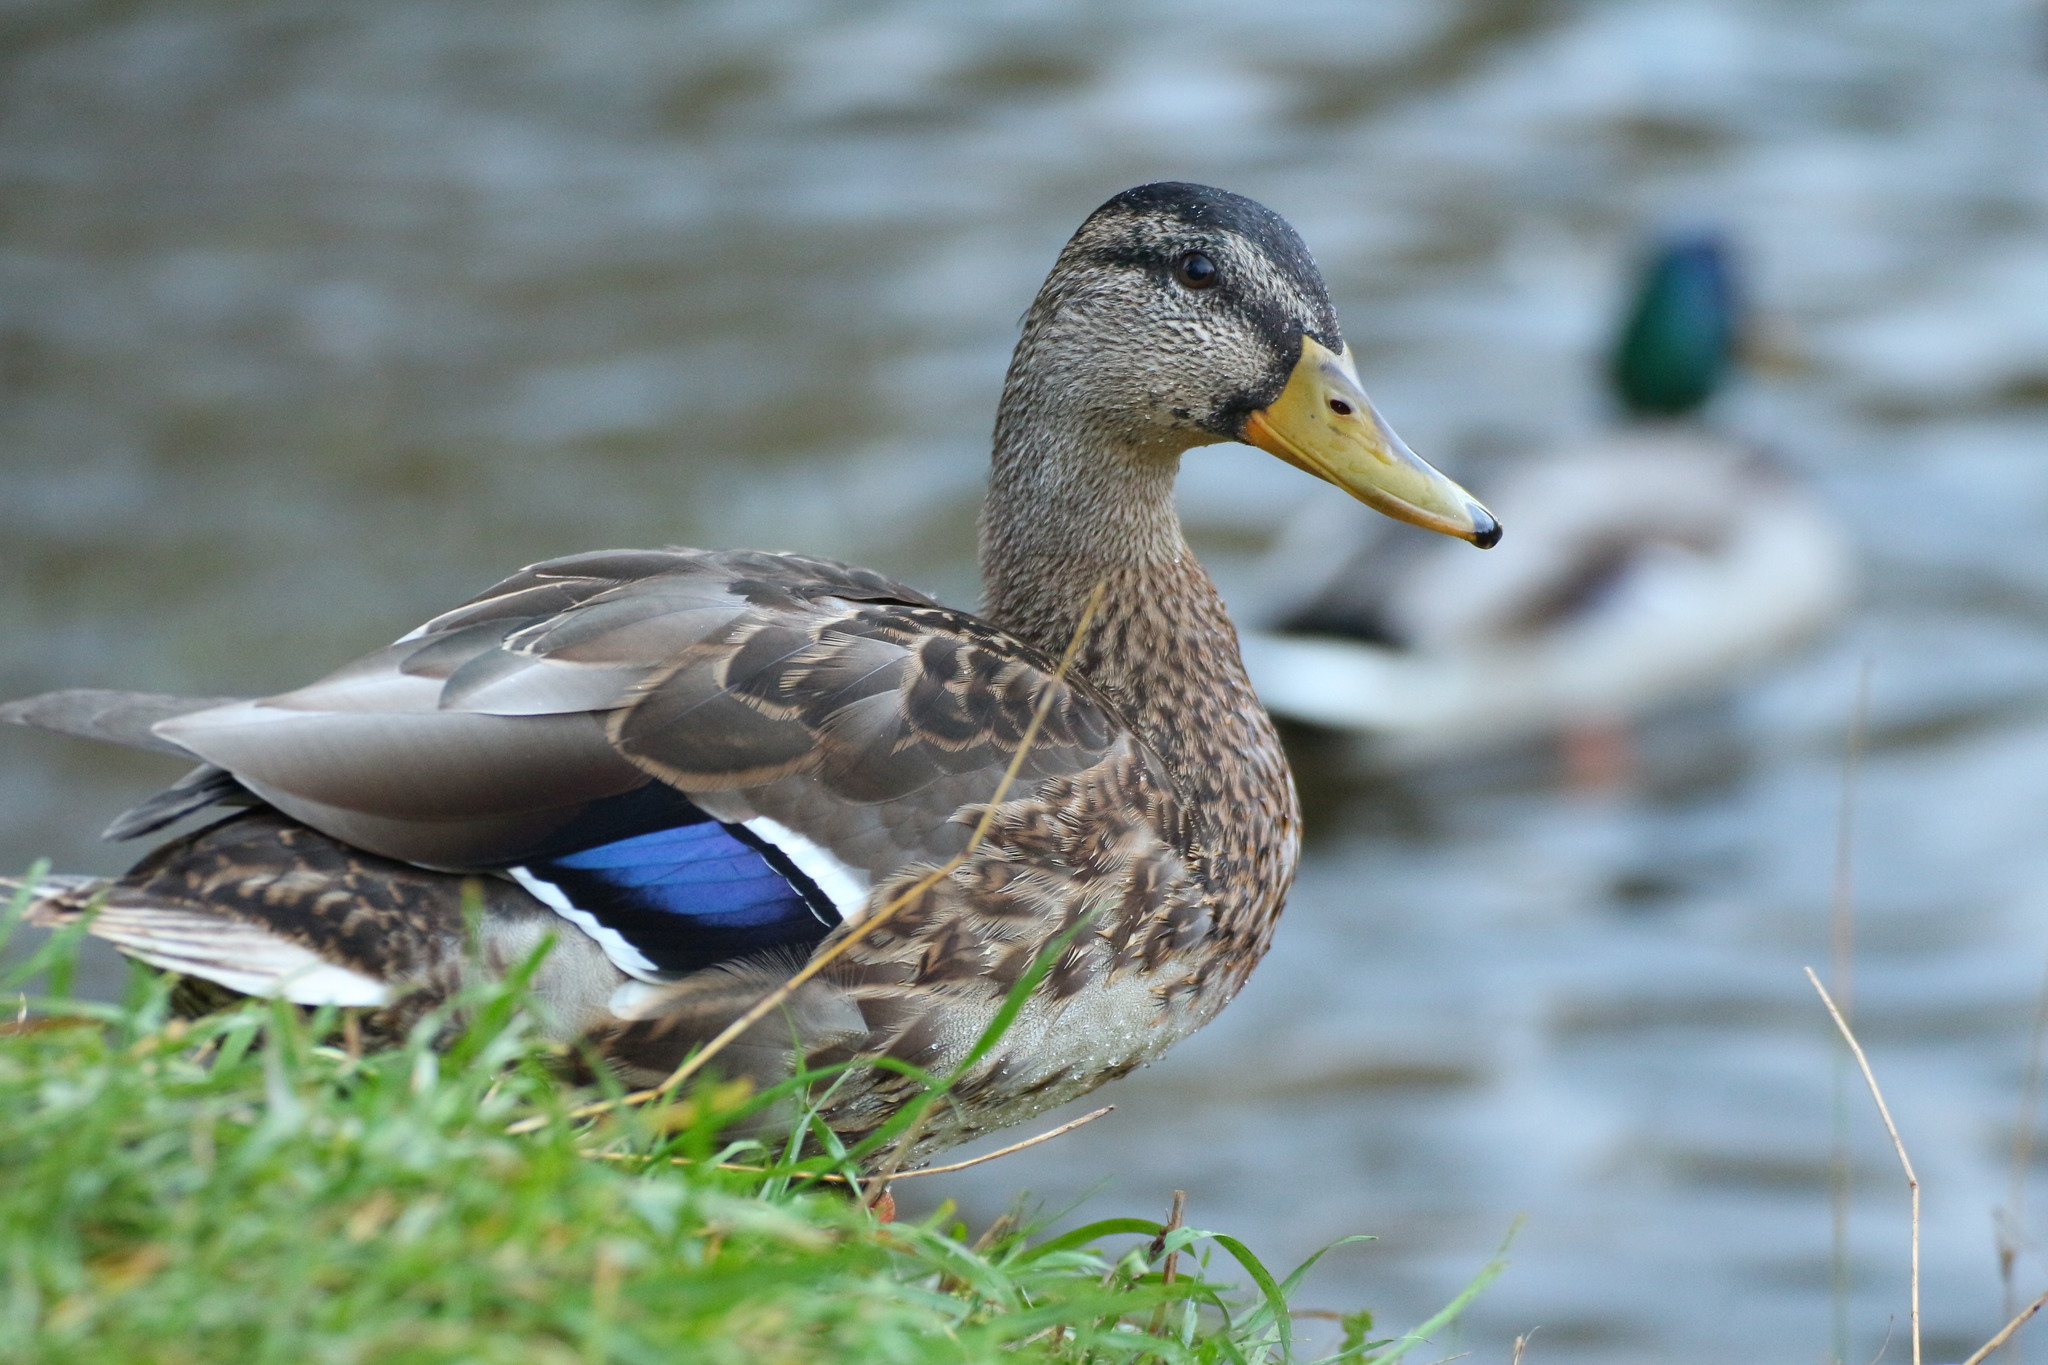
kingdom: Animalia
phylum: Chordata
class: Aves
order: Anseriformes
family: Anatidae
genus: Anas
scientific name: Anas platyrhynchos
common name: Mallard
